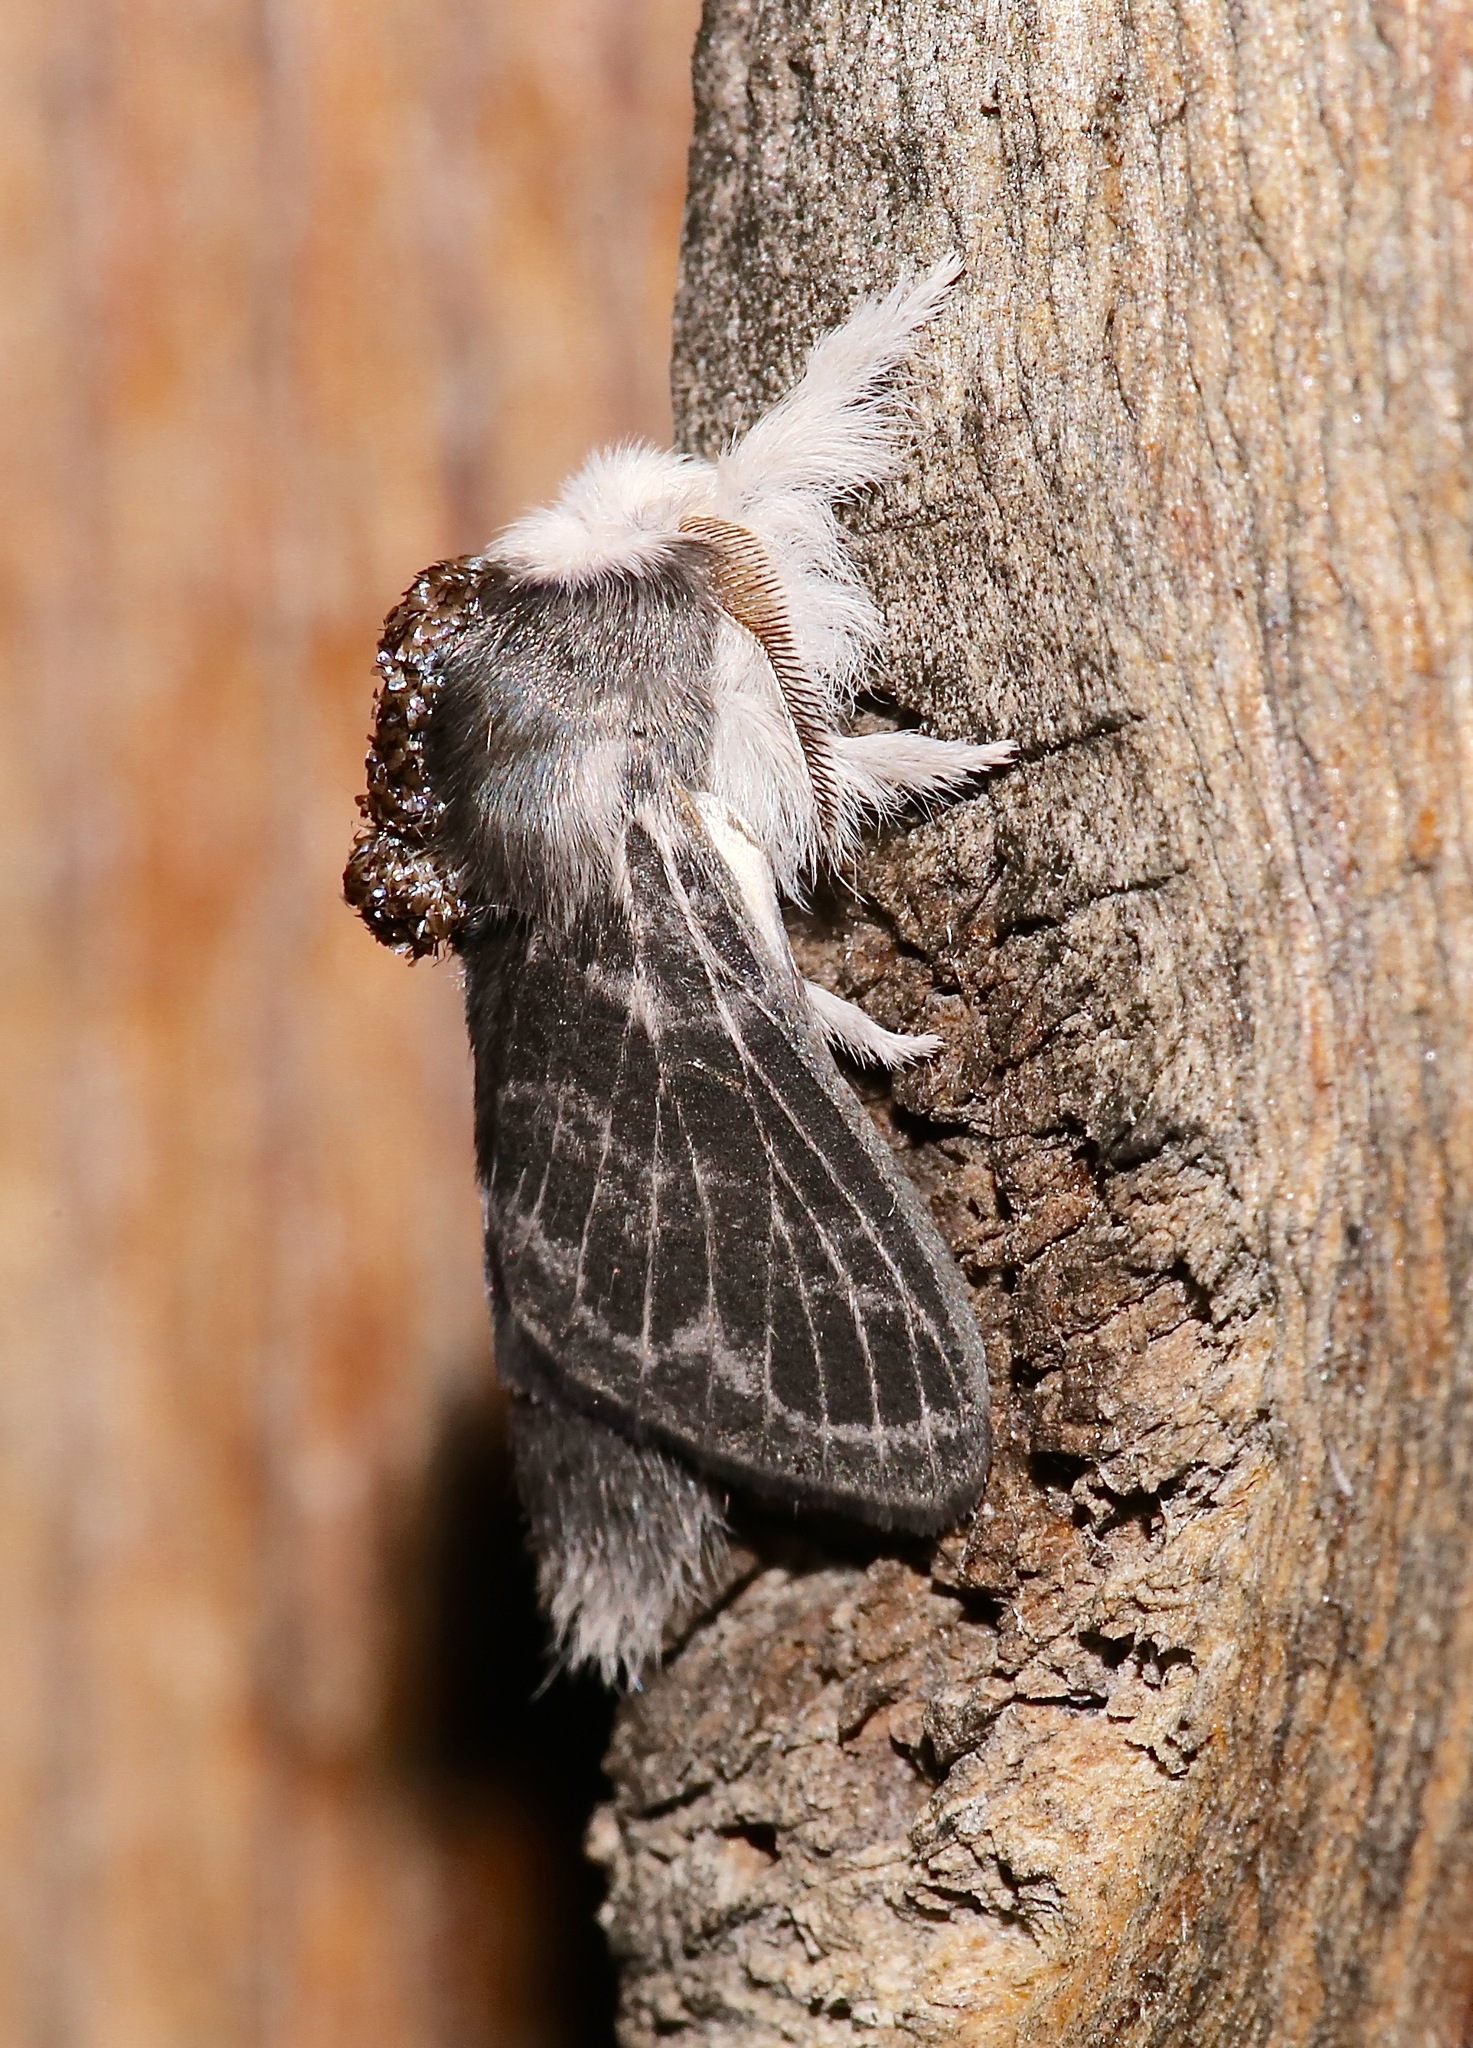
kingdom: Animalia
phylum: Arthropoda
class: Insecta
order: Lepidoptera
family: Lasiocampidae
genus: Tolype
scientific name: Tolype laricis
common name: Larch tolype moth
